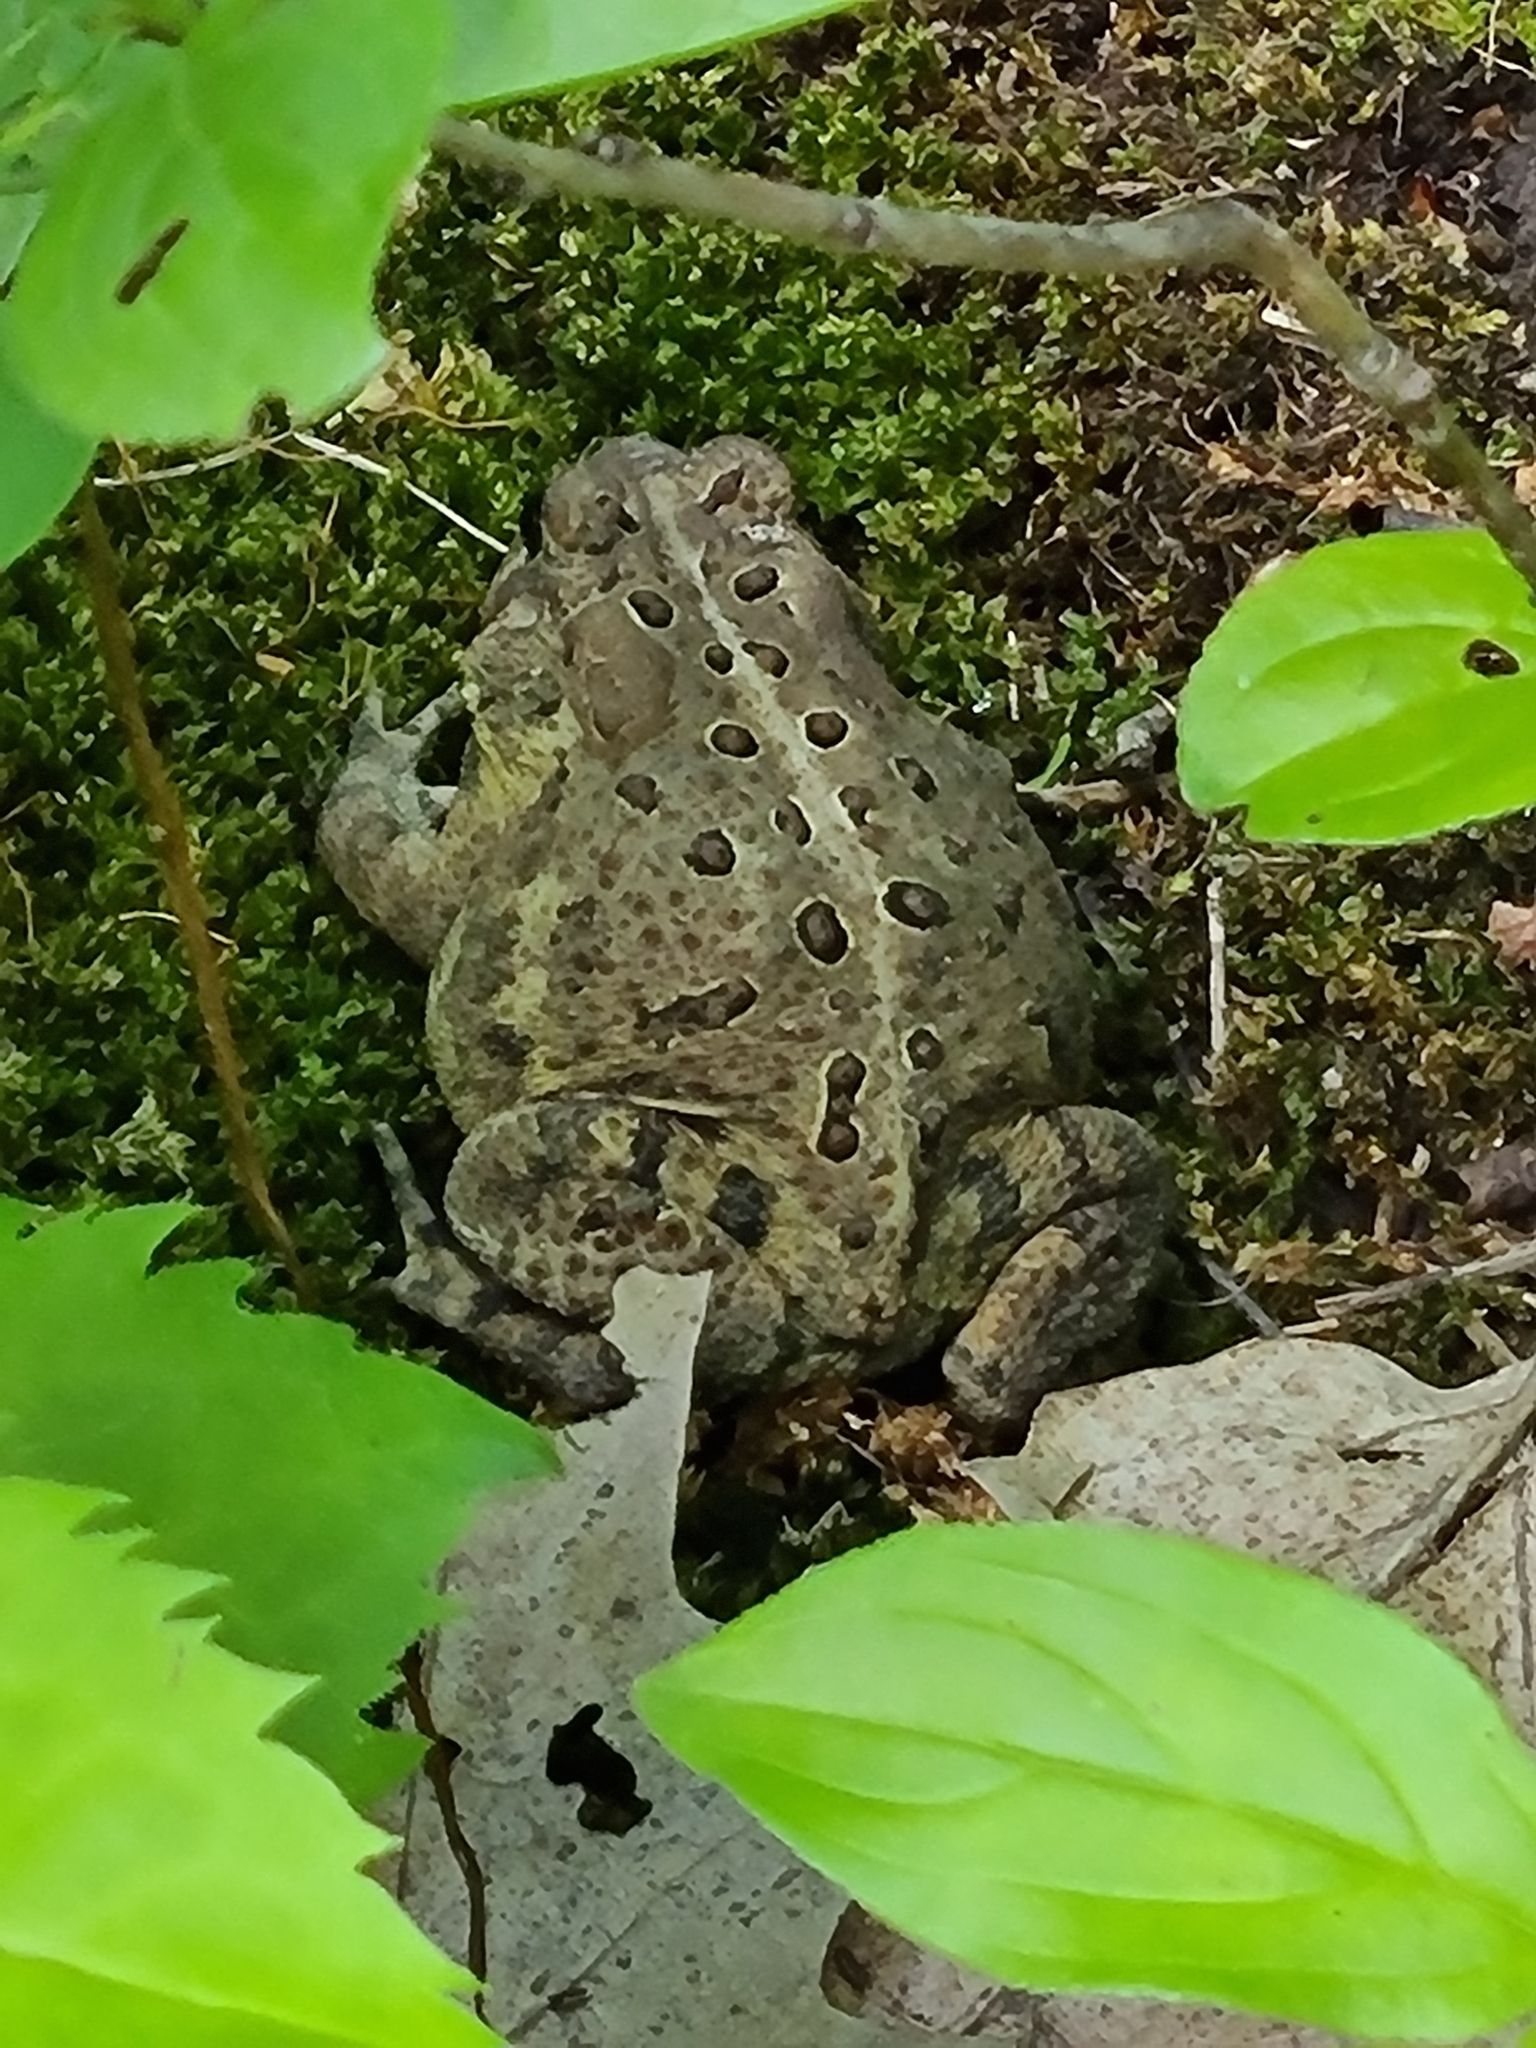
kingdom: Animalia
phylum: Chordata
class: Amphibia
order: Anura
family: Bufonidae
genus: Anaxyrus
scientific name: Anaxyrus americanus
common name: American toad
